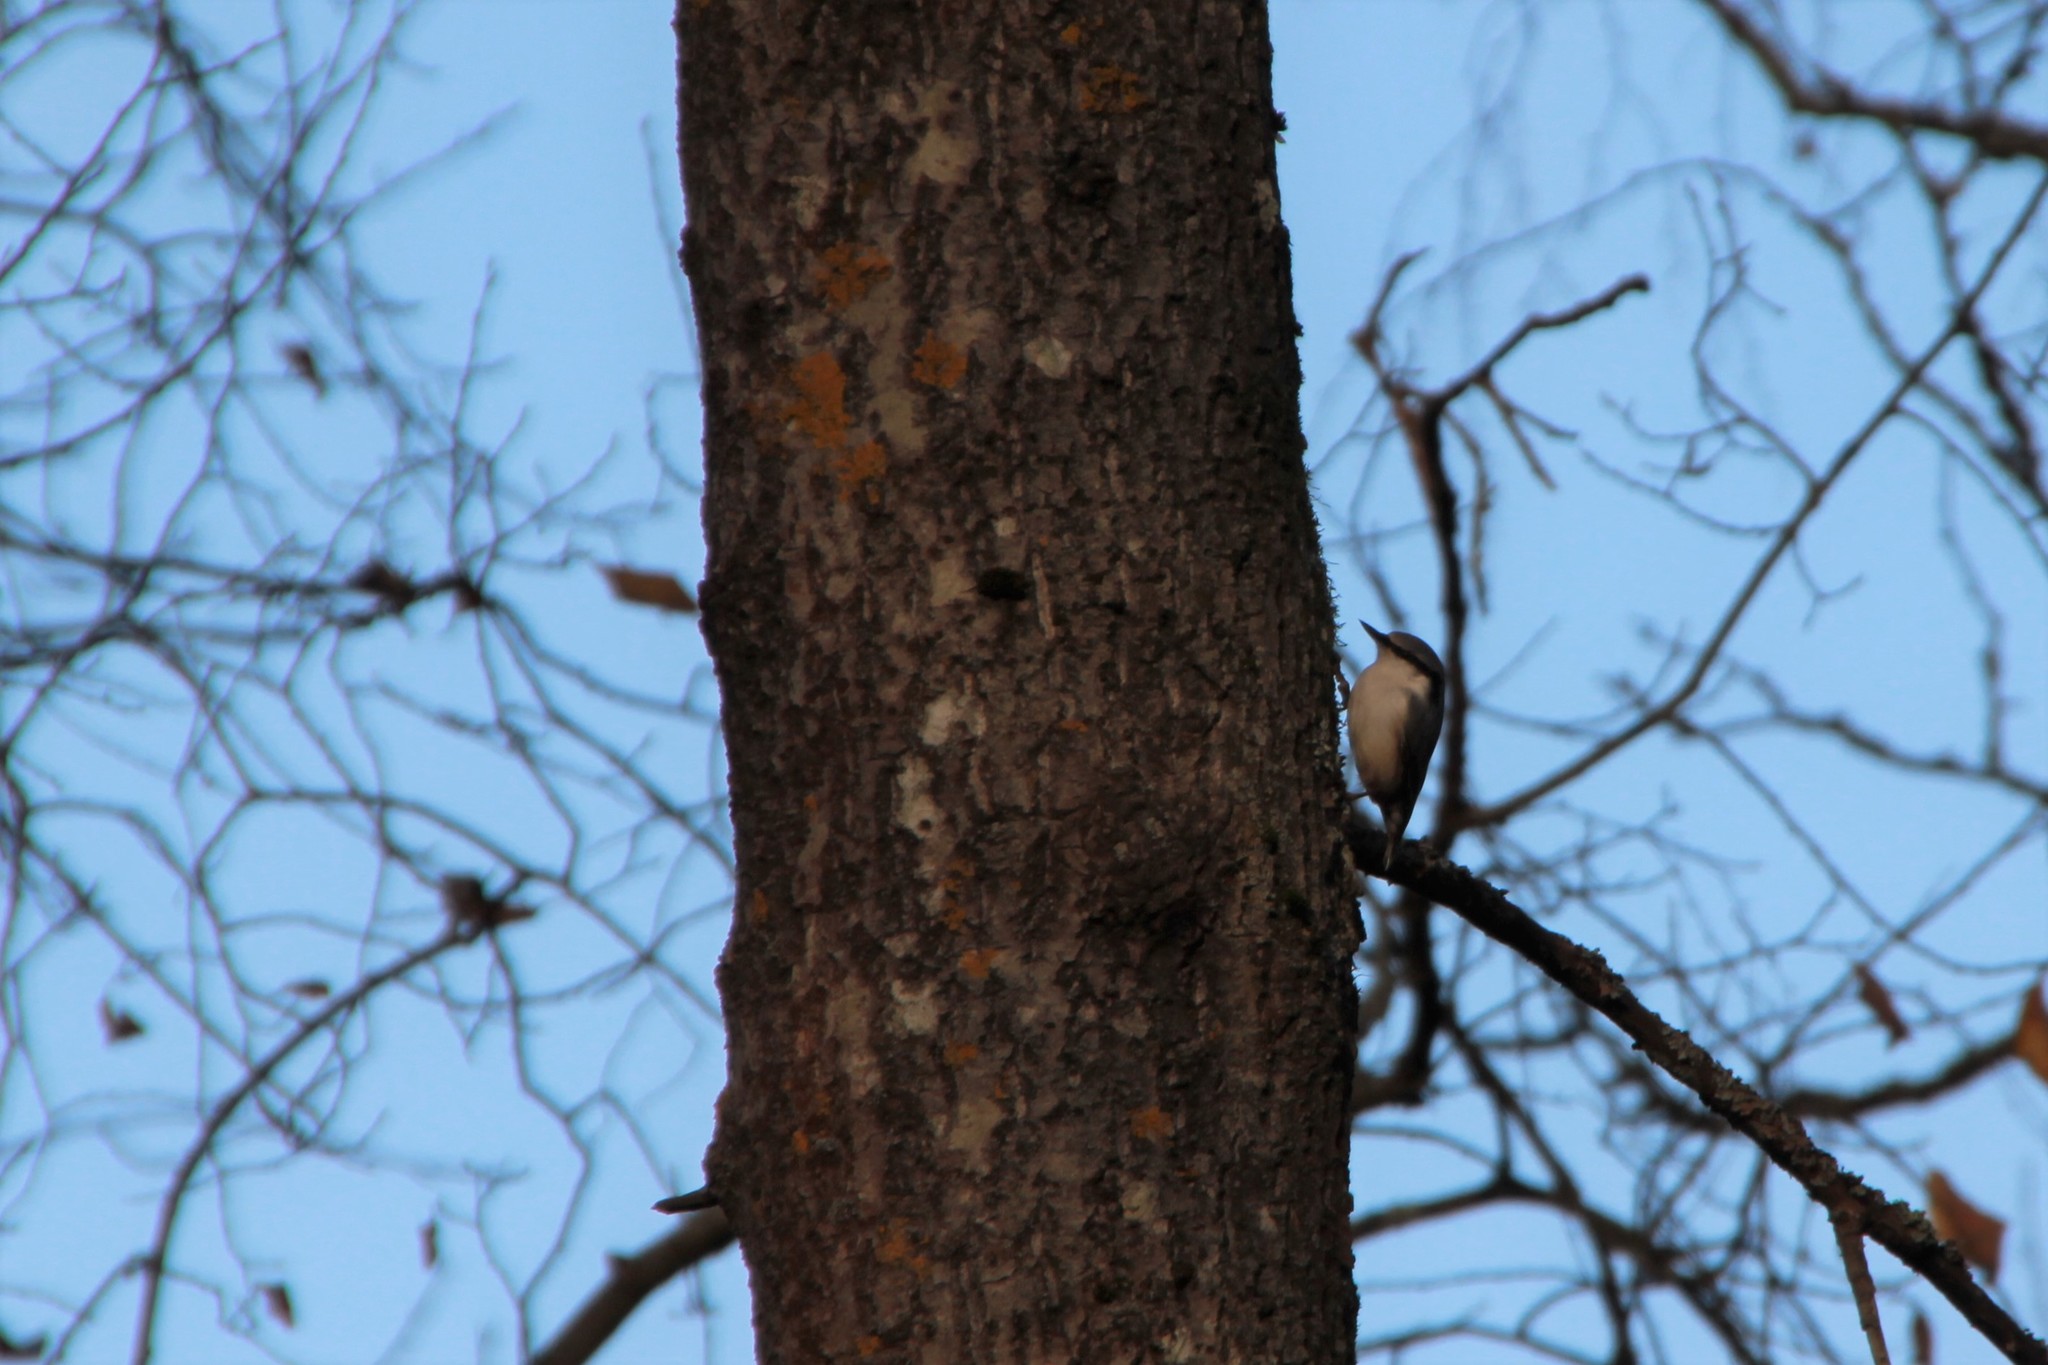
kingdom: Animalia
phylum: Chordata
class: Aves
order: Passeriformes
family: Sittidae
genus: Sitta
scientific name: Sitta europaea
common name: Eurasian nuthatch
